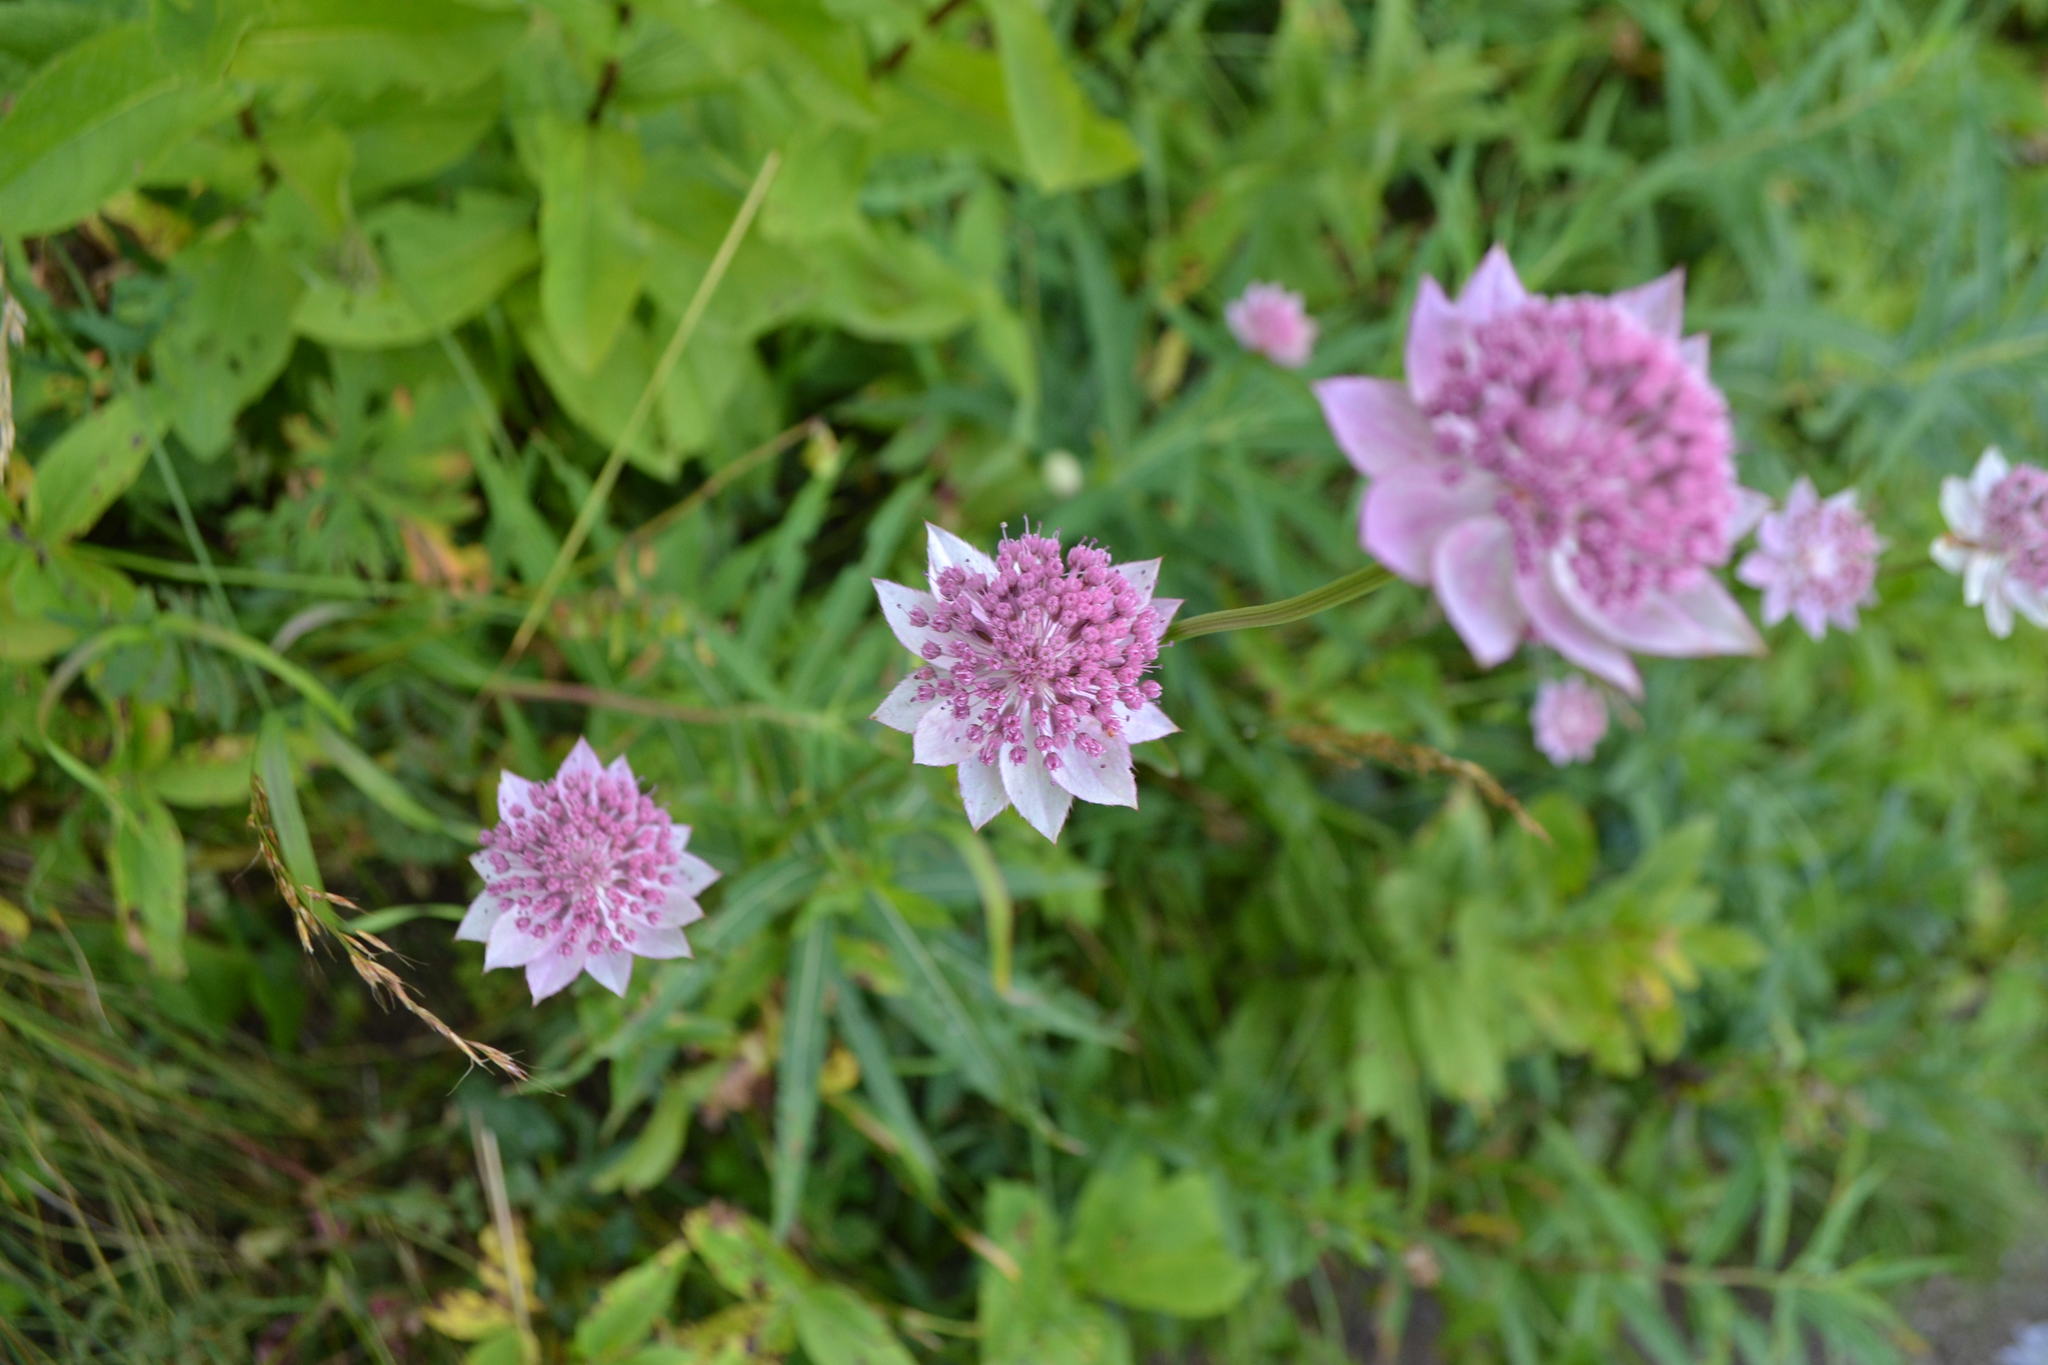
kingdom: Plantae
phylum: Tracheophyta
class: Magnoliopsida
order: Apiales
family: Apiaceae
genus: Astrantia
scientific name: Astrantia maxima
